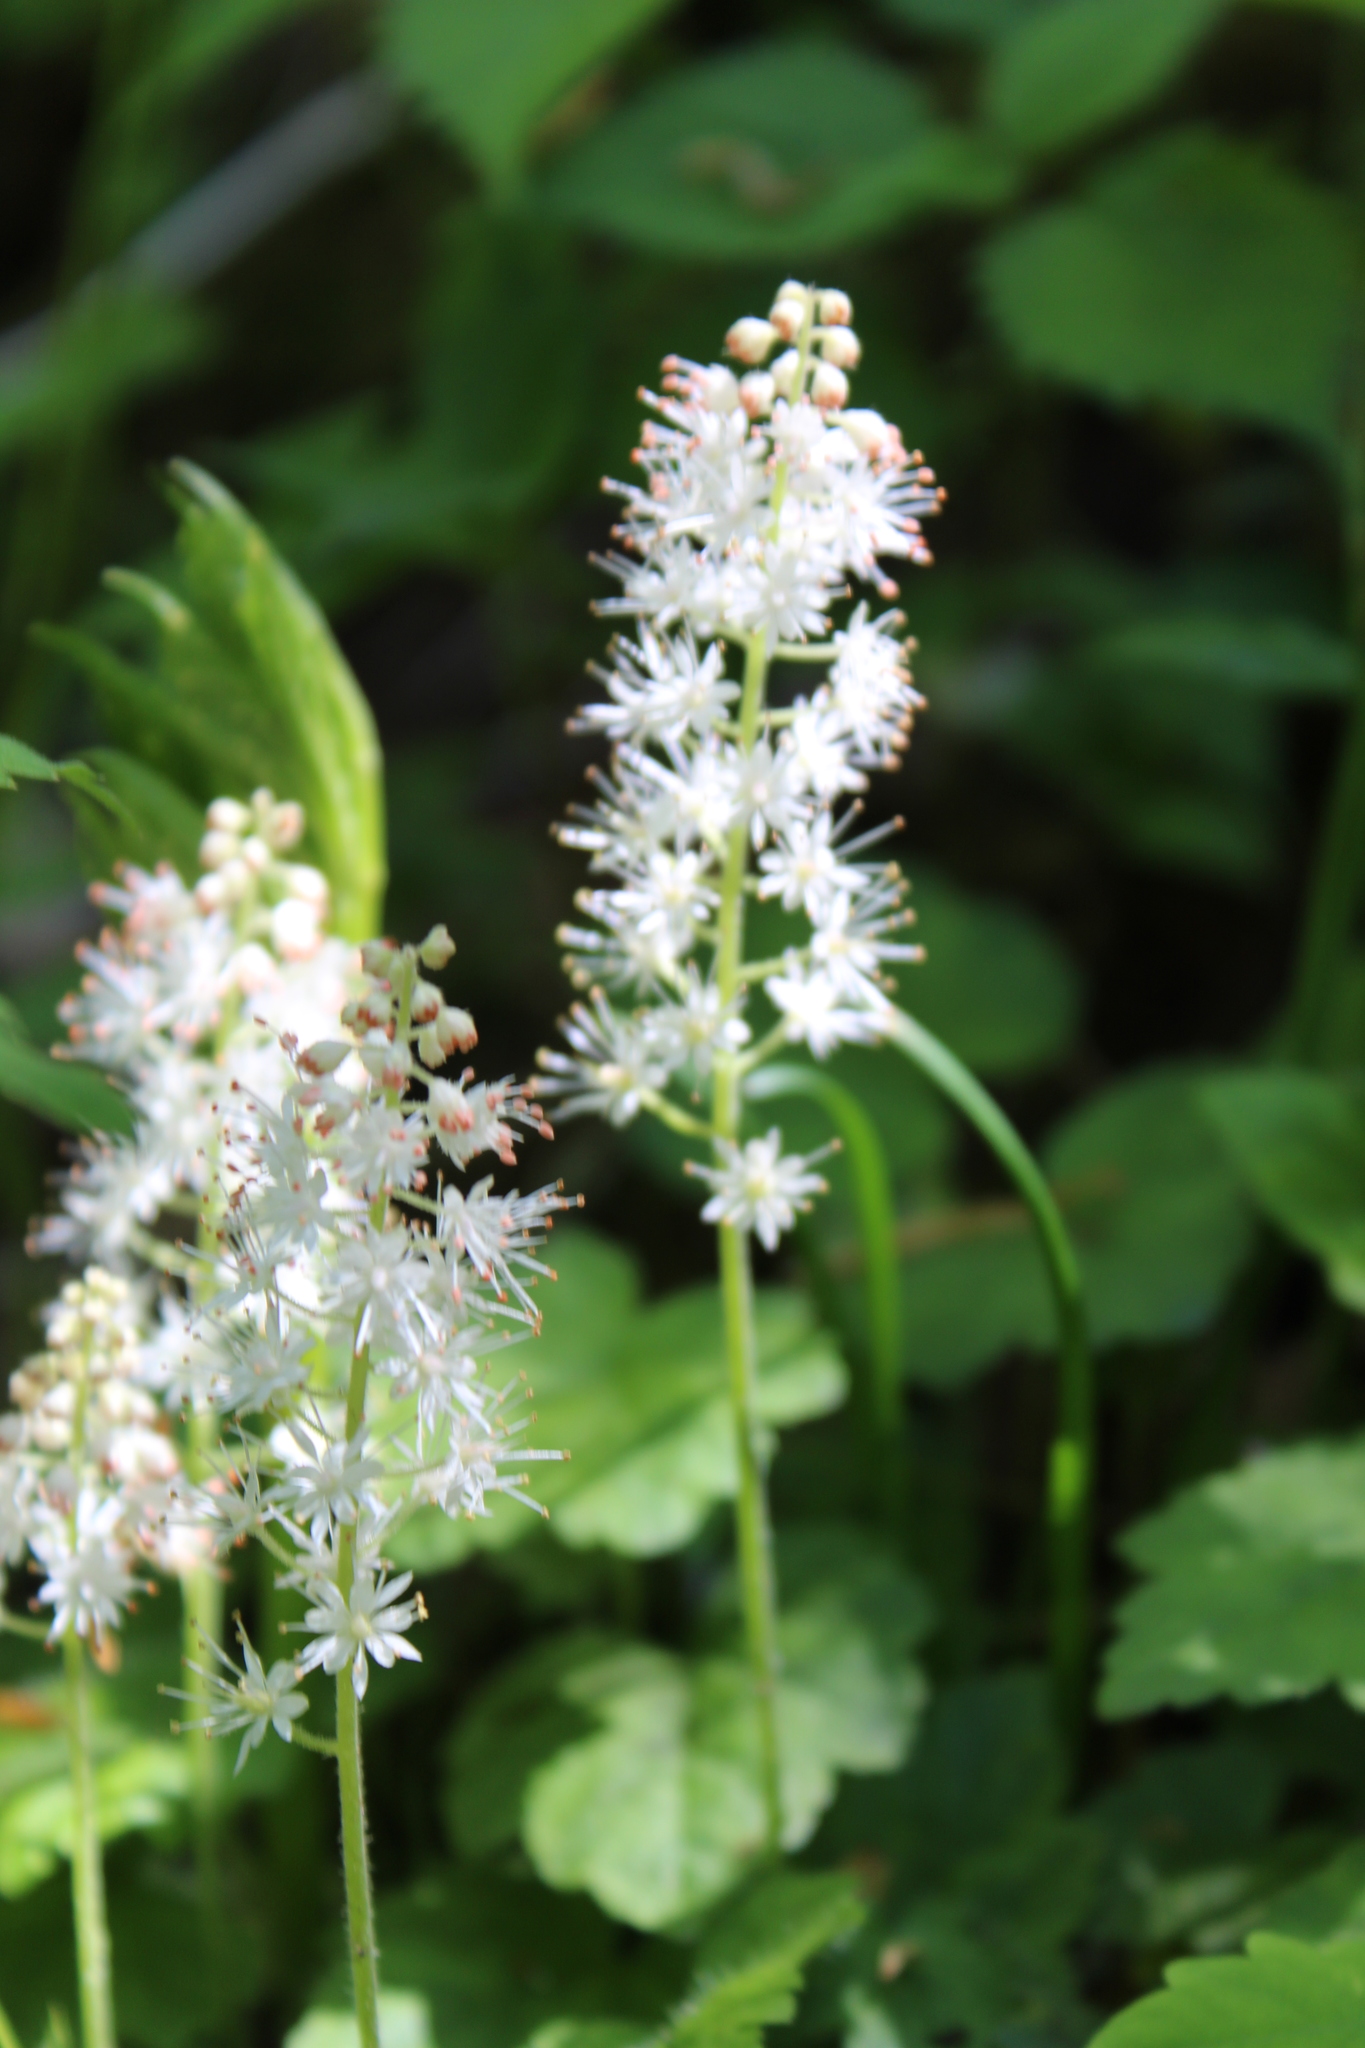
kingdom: Plantae
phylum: Tracheophyta
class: Magnoliopsida
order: Saxifragales
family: Saxifragaceae
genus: Tiarella
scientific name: Tiarella stolonifera
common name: Stoloniferous foamflower
